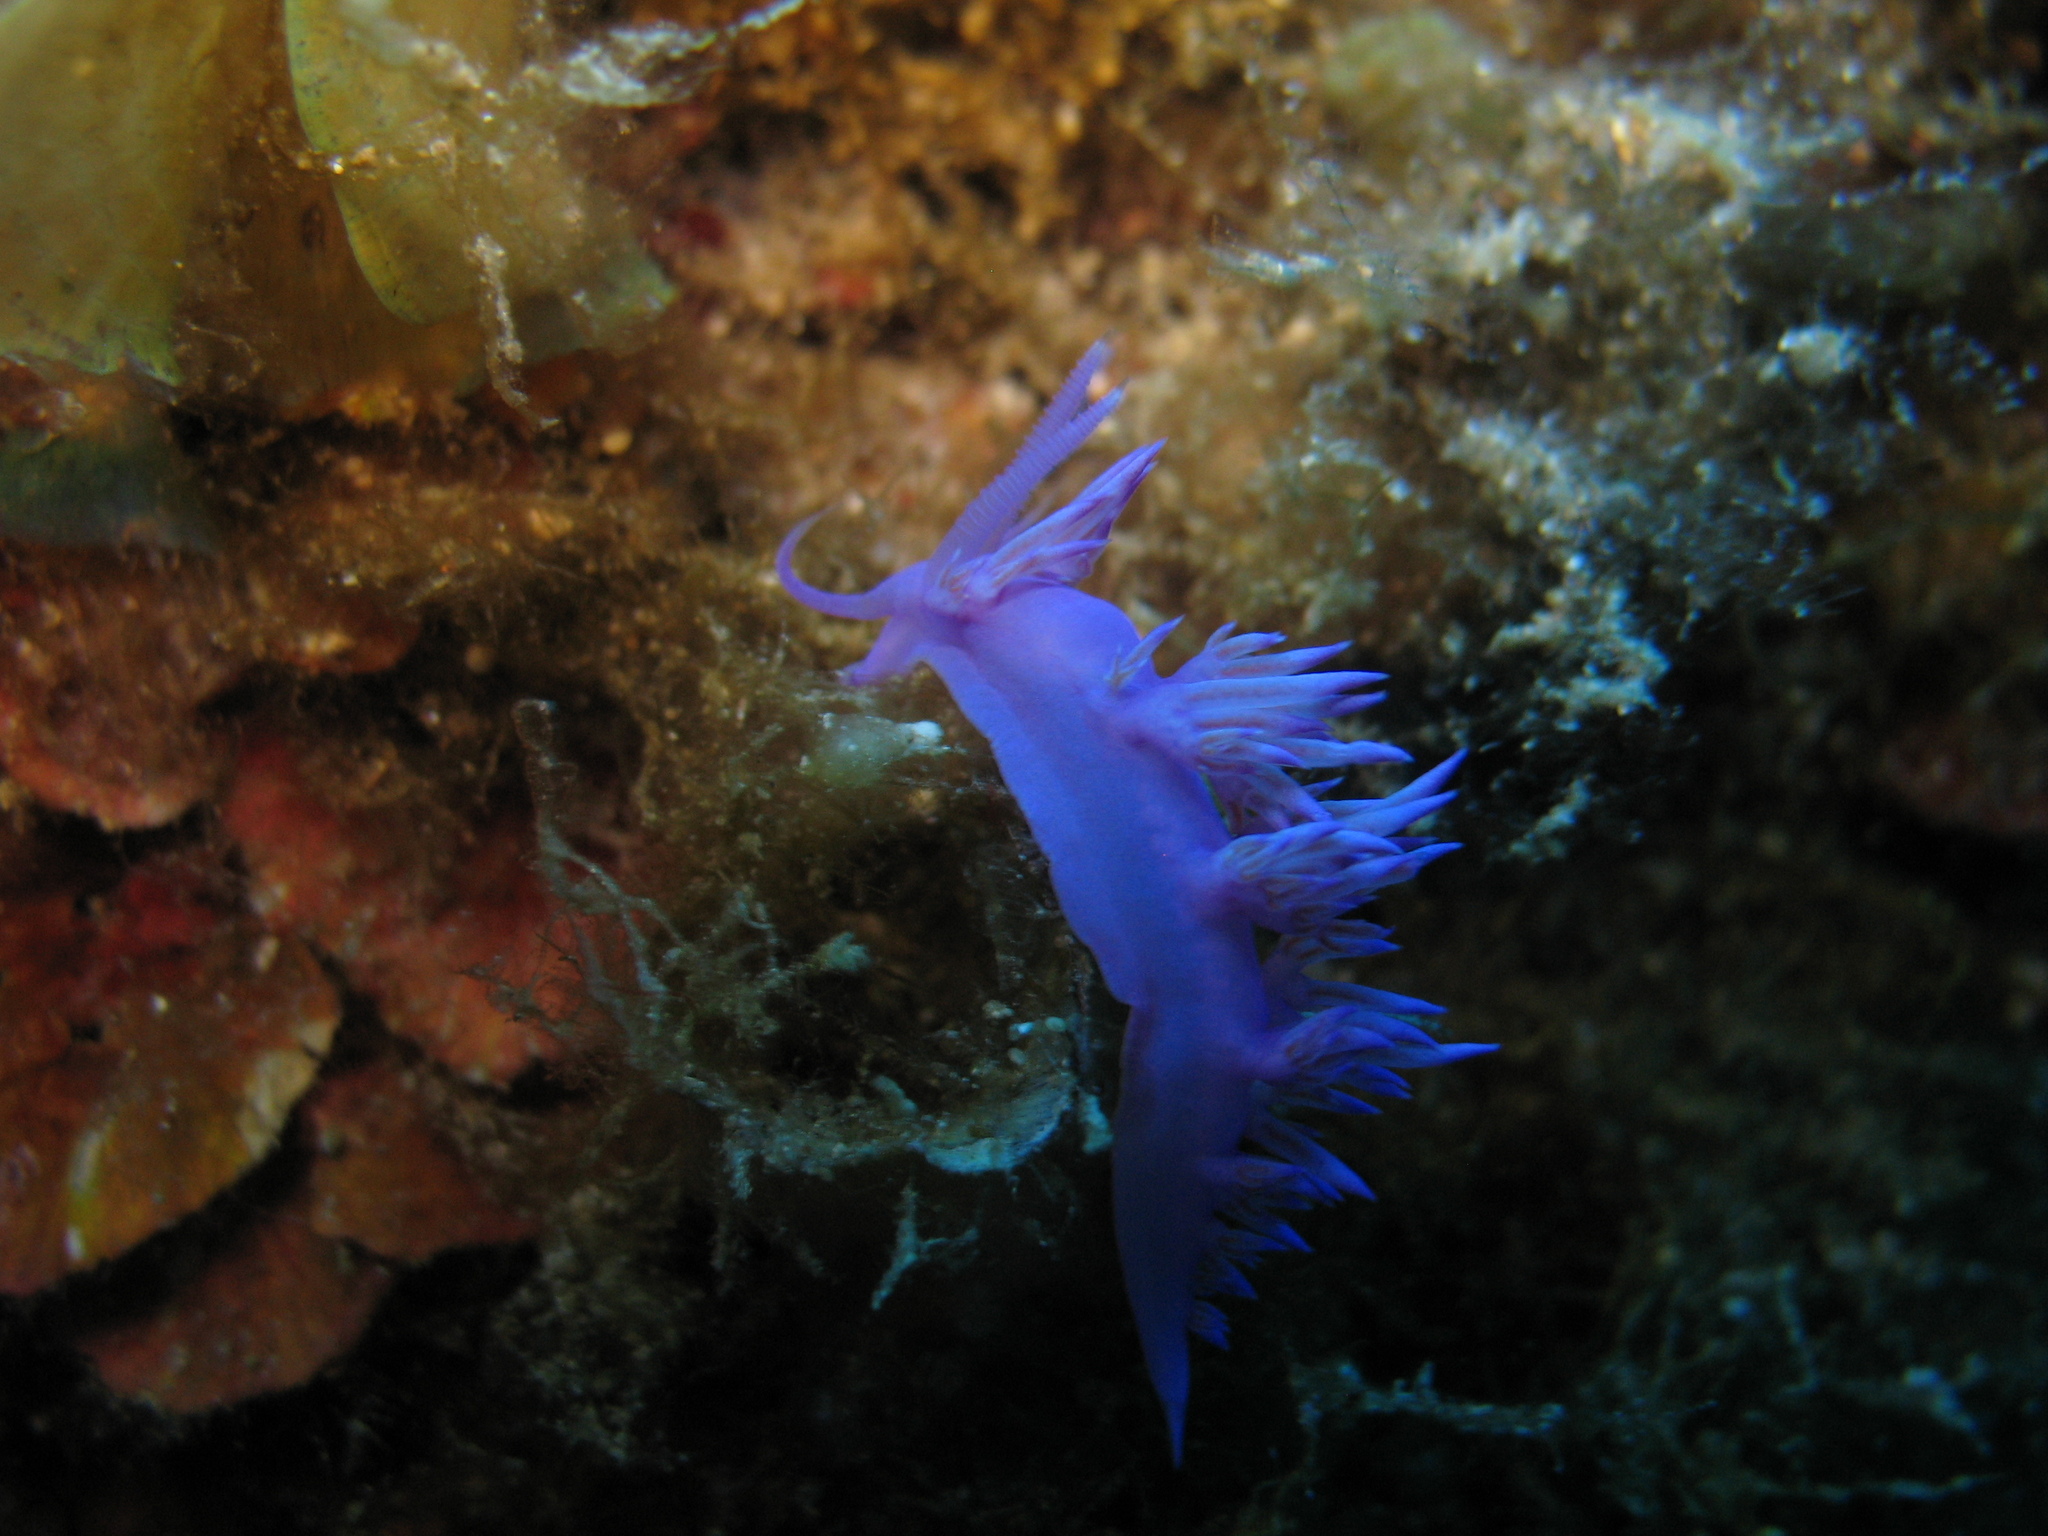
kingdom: Animalia
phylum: Mollusca
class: Gastropoda
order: Nudibranchia
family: Flabellinidae
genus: Flabellina
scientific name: Flabellina affinis
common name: Mediterranean violet aeolid
